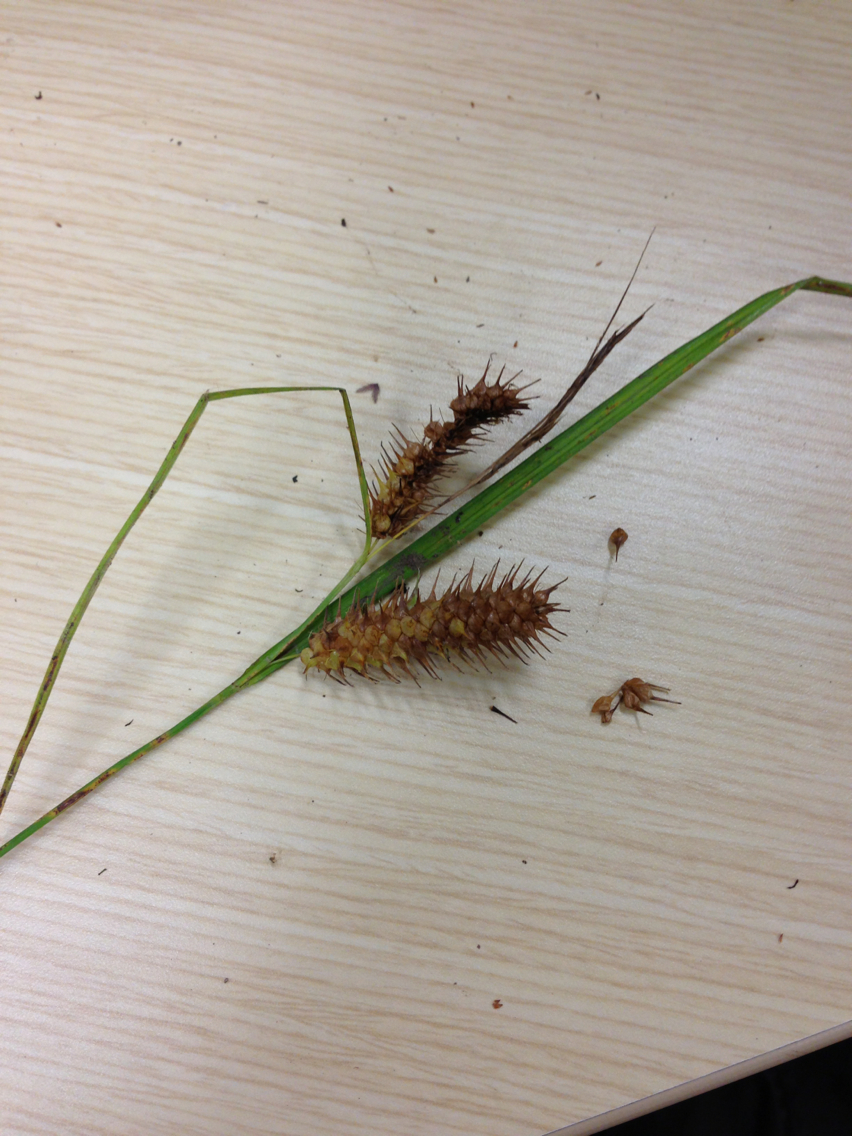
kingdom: Plantae
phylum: Tracheophyta
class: Liliopsida
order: Poales
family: Cyperaceae
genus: Carex
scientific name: Carex lurida
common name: Sallow sedge
